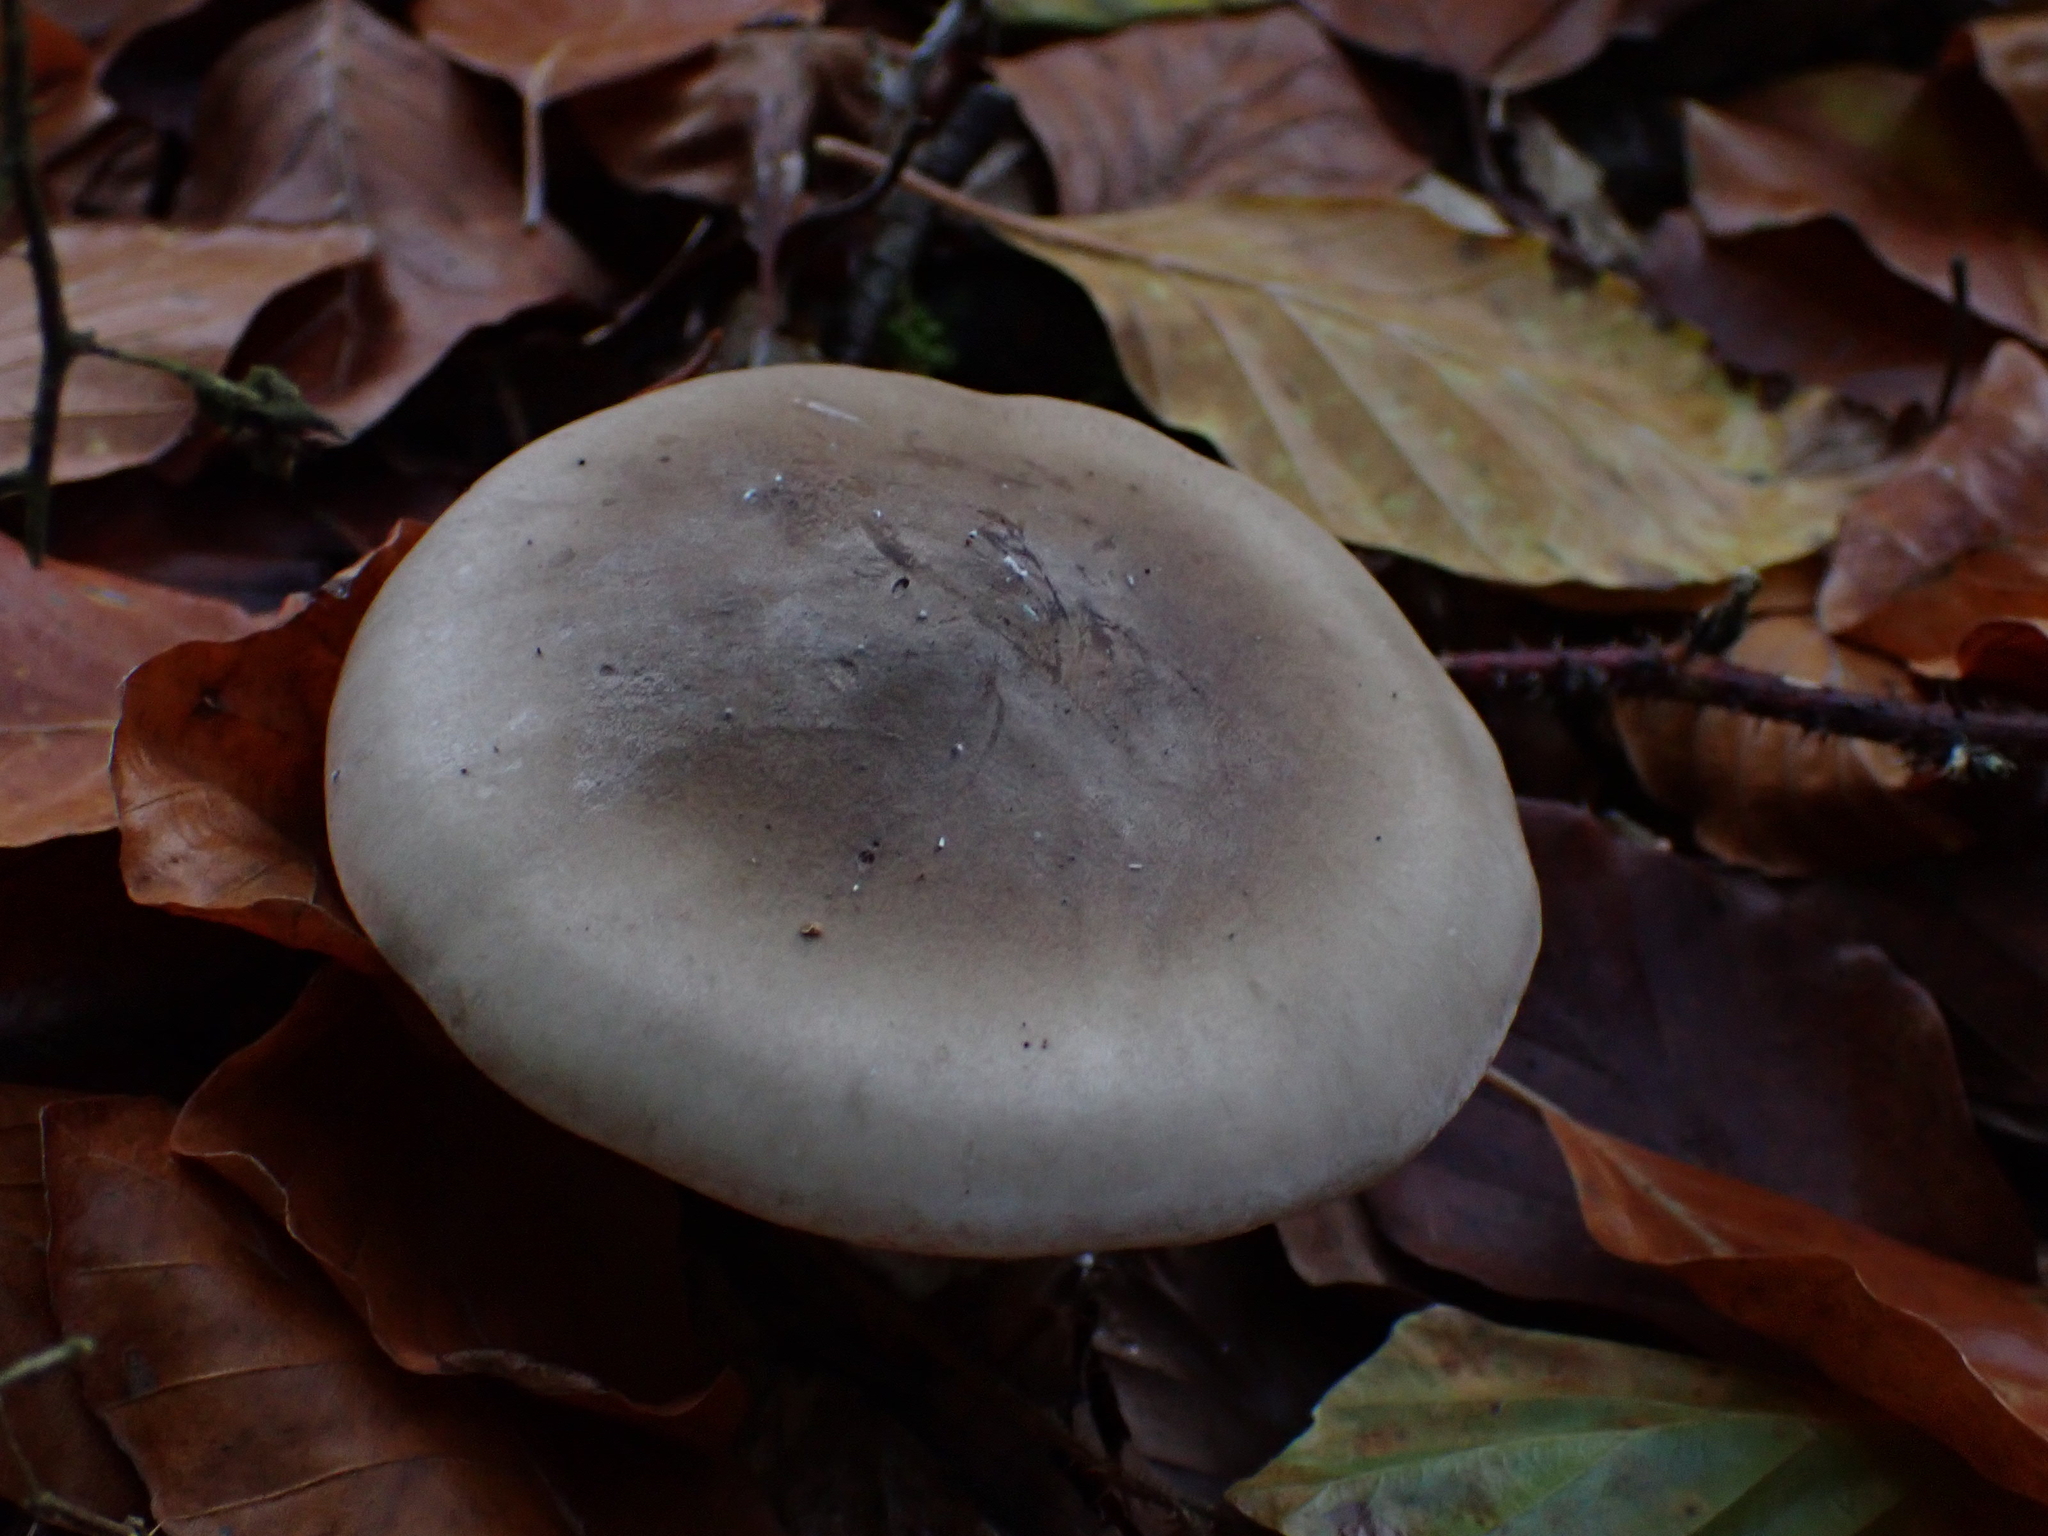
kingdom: Fungi
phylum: Basidiomycota
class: Agaricomycetes
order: Agaricales
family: Tricholomataceae
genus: Clitocybe
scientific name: Clitocybe nebularis
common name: Clouded agaric
